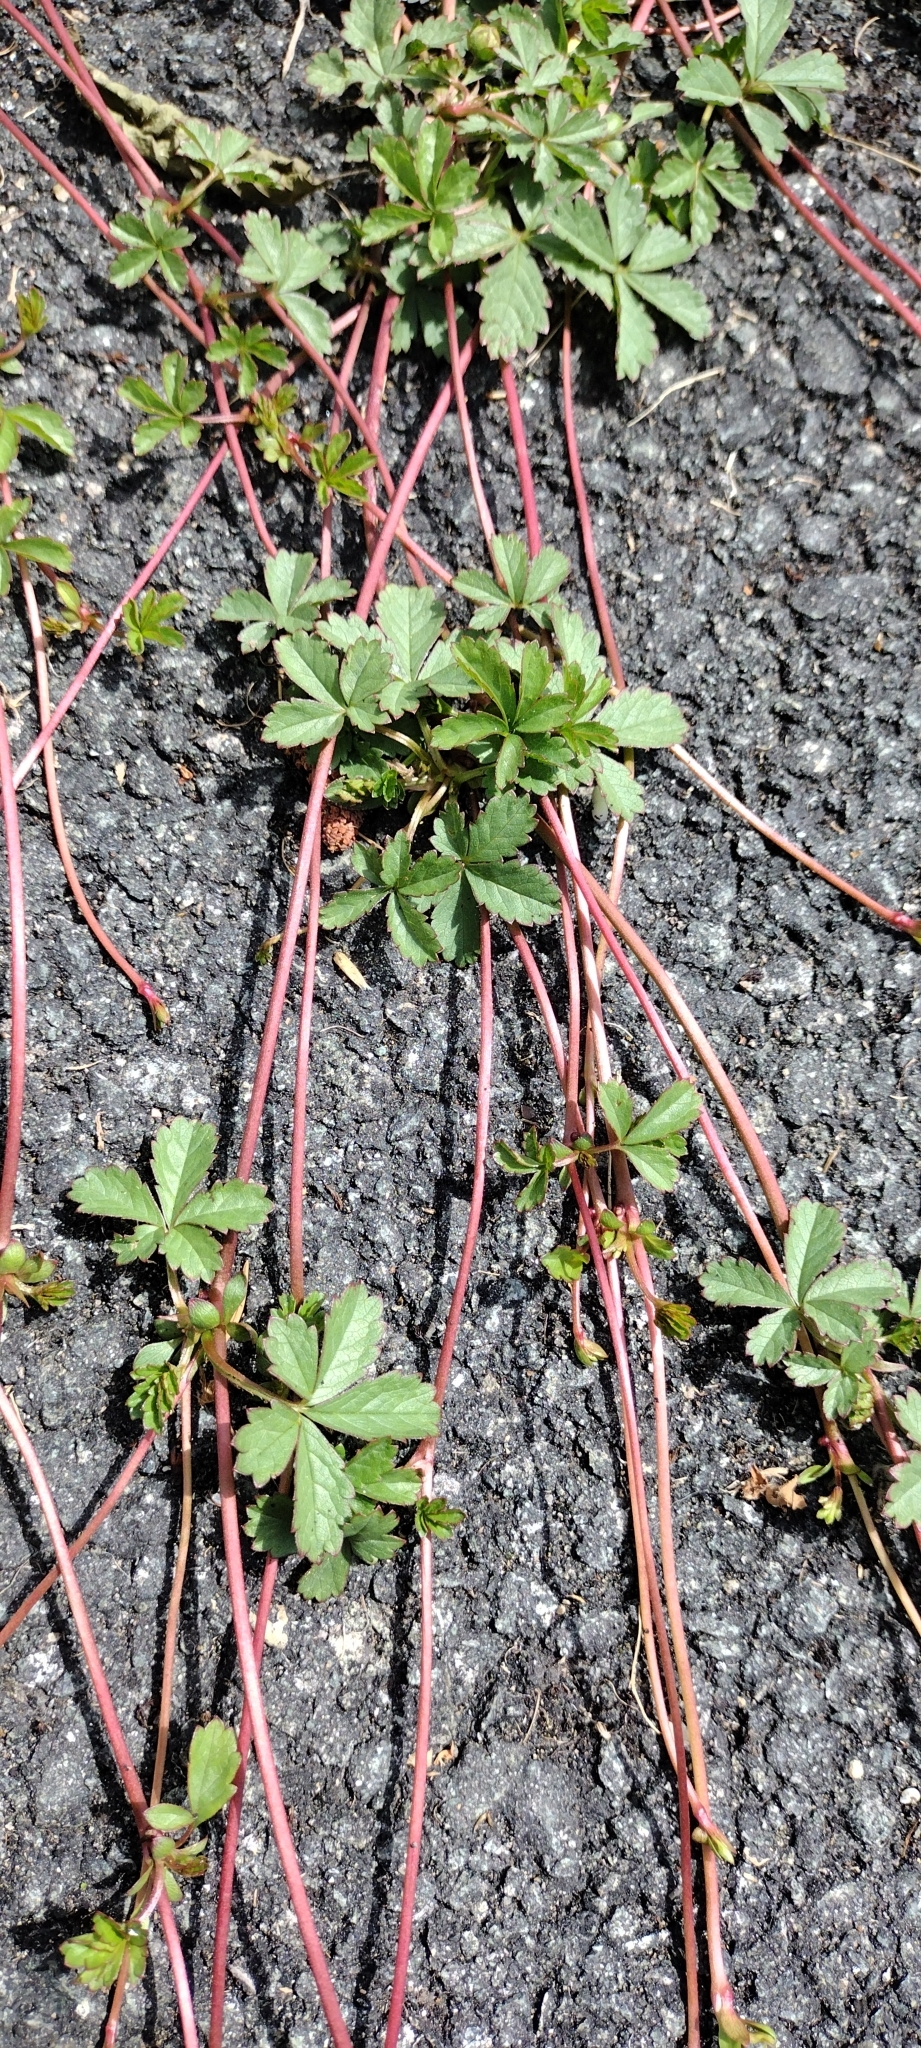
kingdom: Plantae
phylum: Tracheophyta
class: Magnoliopsida
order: Rosales
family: Rosaceae
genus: Potentilla
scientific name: Potentilla reptans
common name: Creeping cinquefoil
